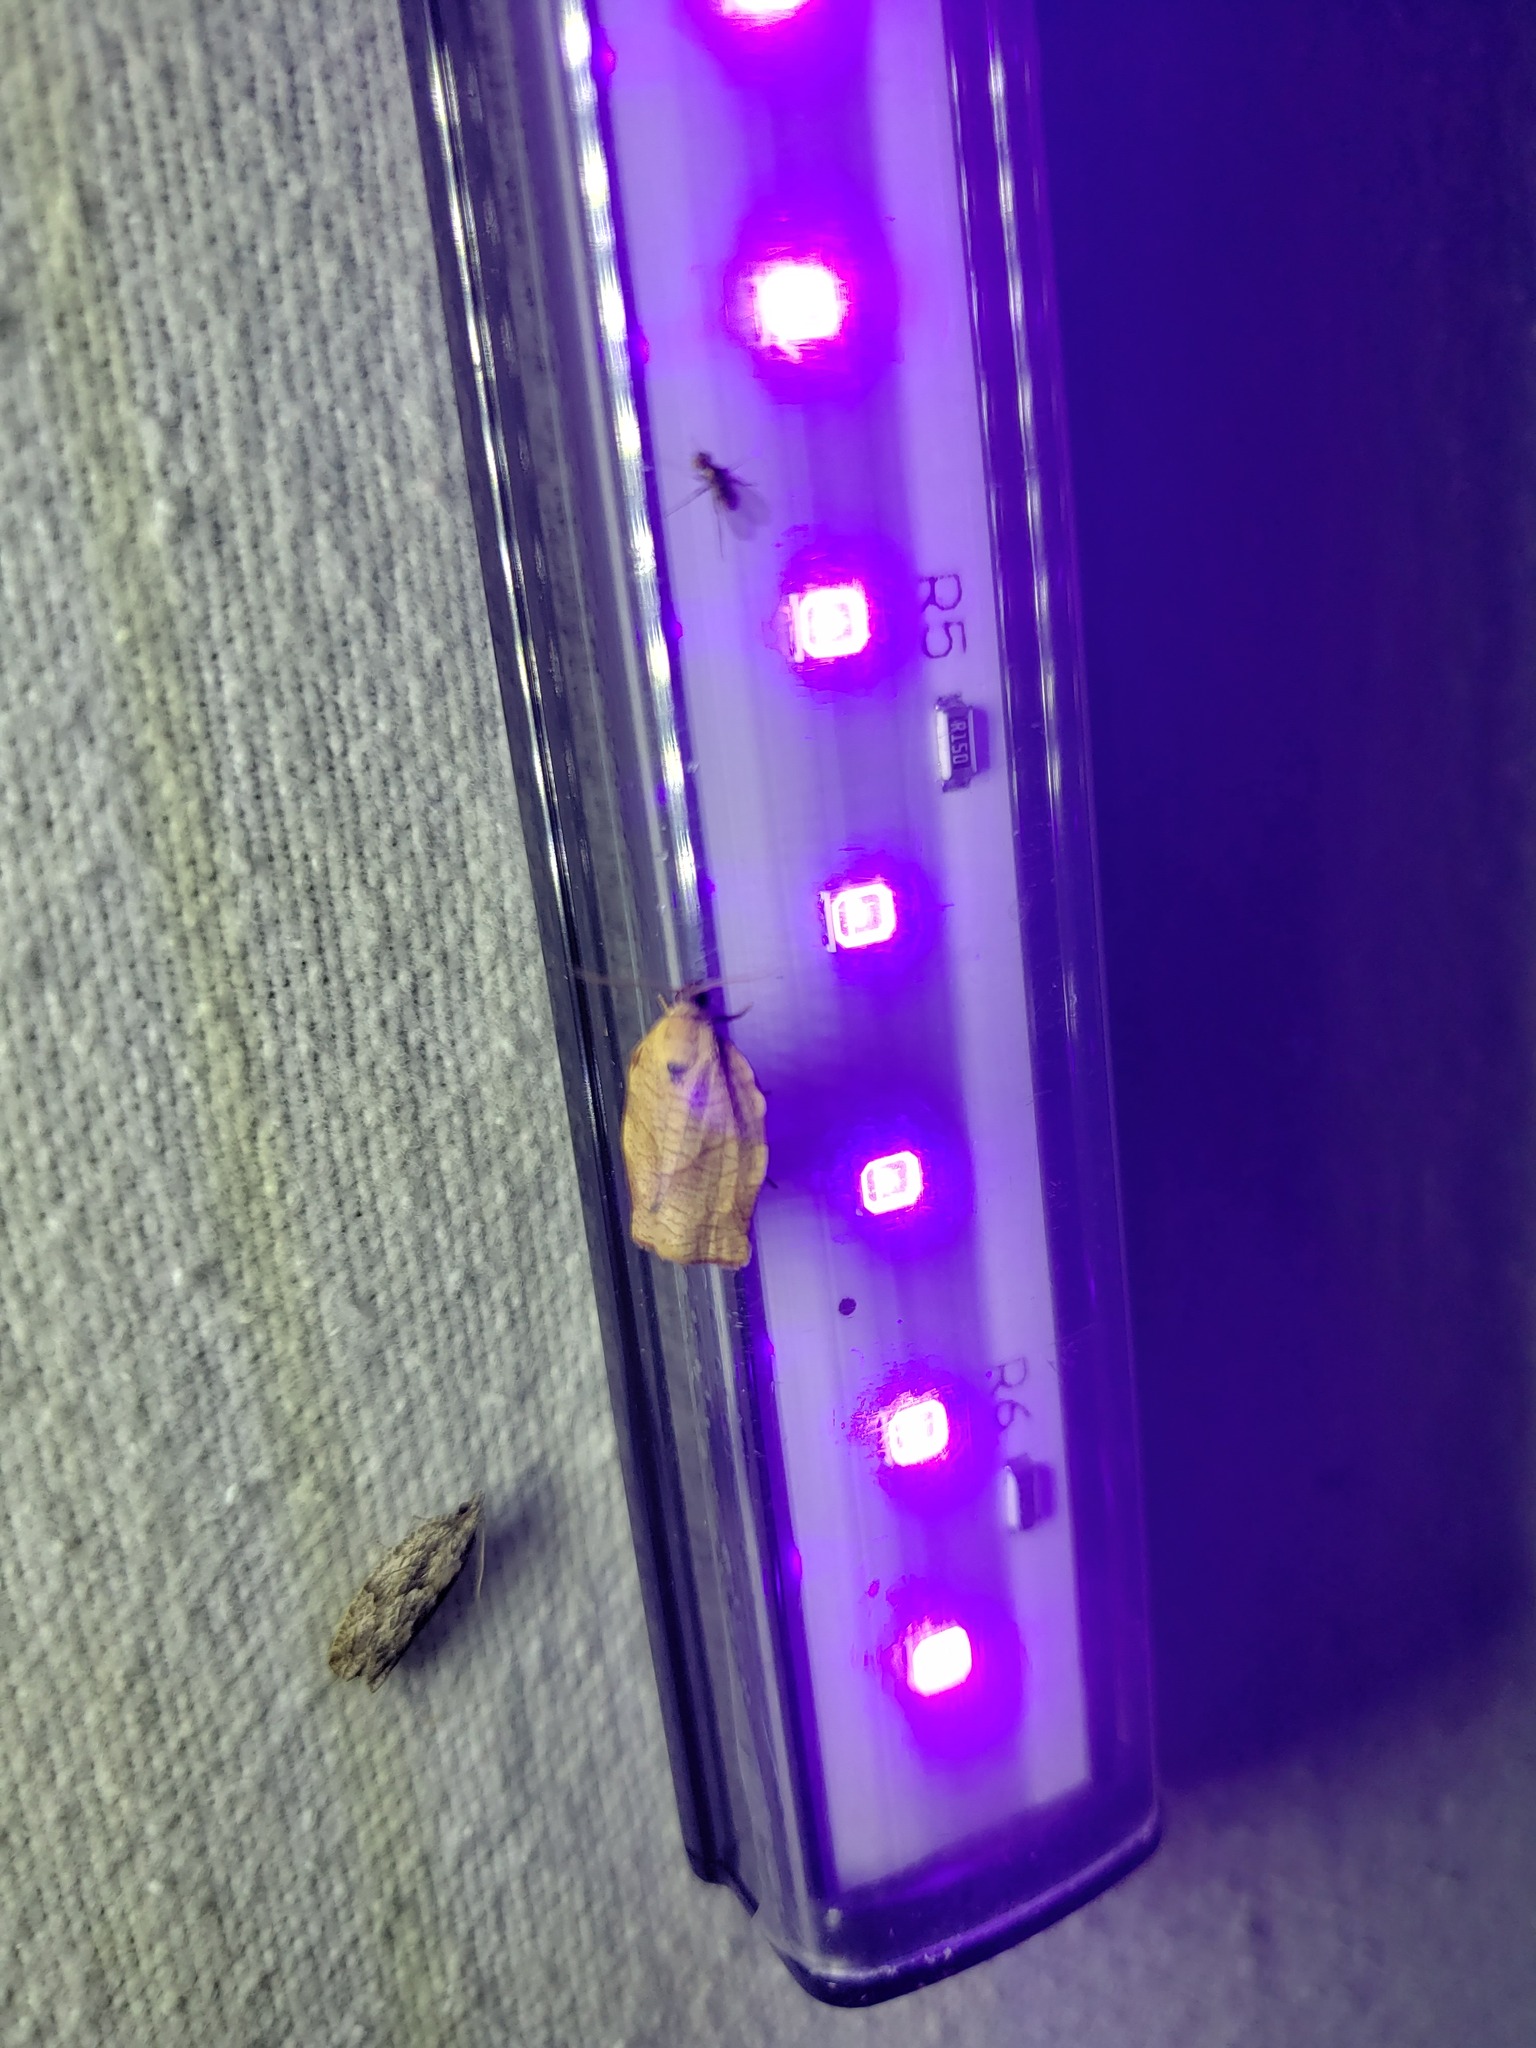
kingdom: Animalia
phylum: Arthropoda
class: Insecta
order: Lepidoptera
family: Tortricidae
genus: Choristoneura
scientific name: Choristoneura rosaceana
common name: Oblique-banded leafroller moth
